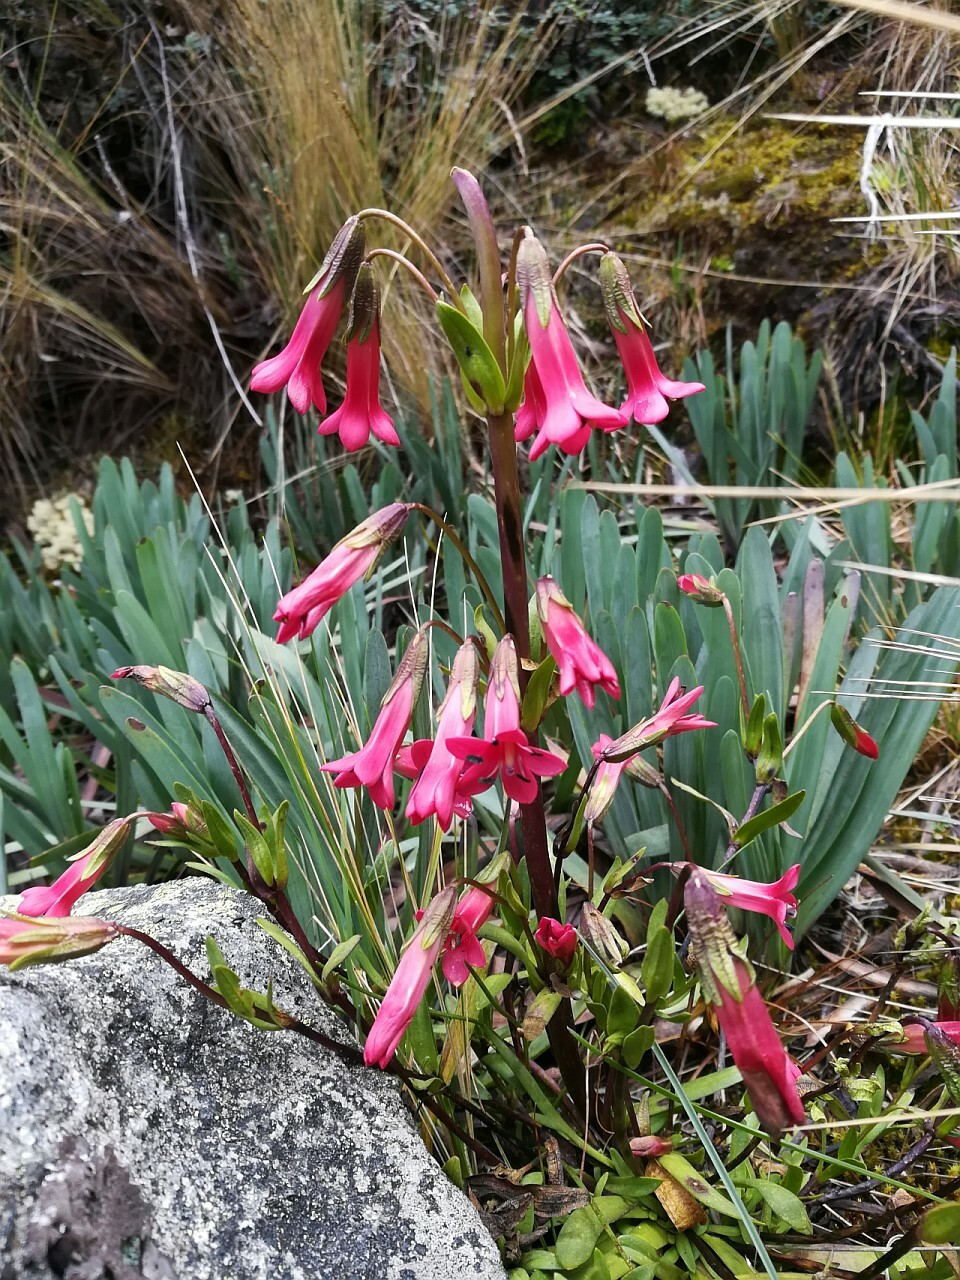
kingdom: Plantae
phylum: Tracheophyta
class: Magnoliopsida
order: Gentianales
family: Gentianaceae
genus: Gentianella
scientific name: Gentianella weberbaueri
